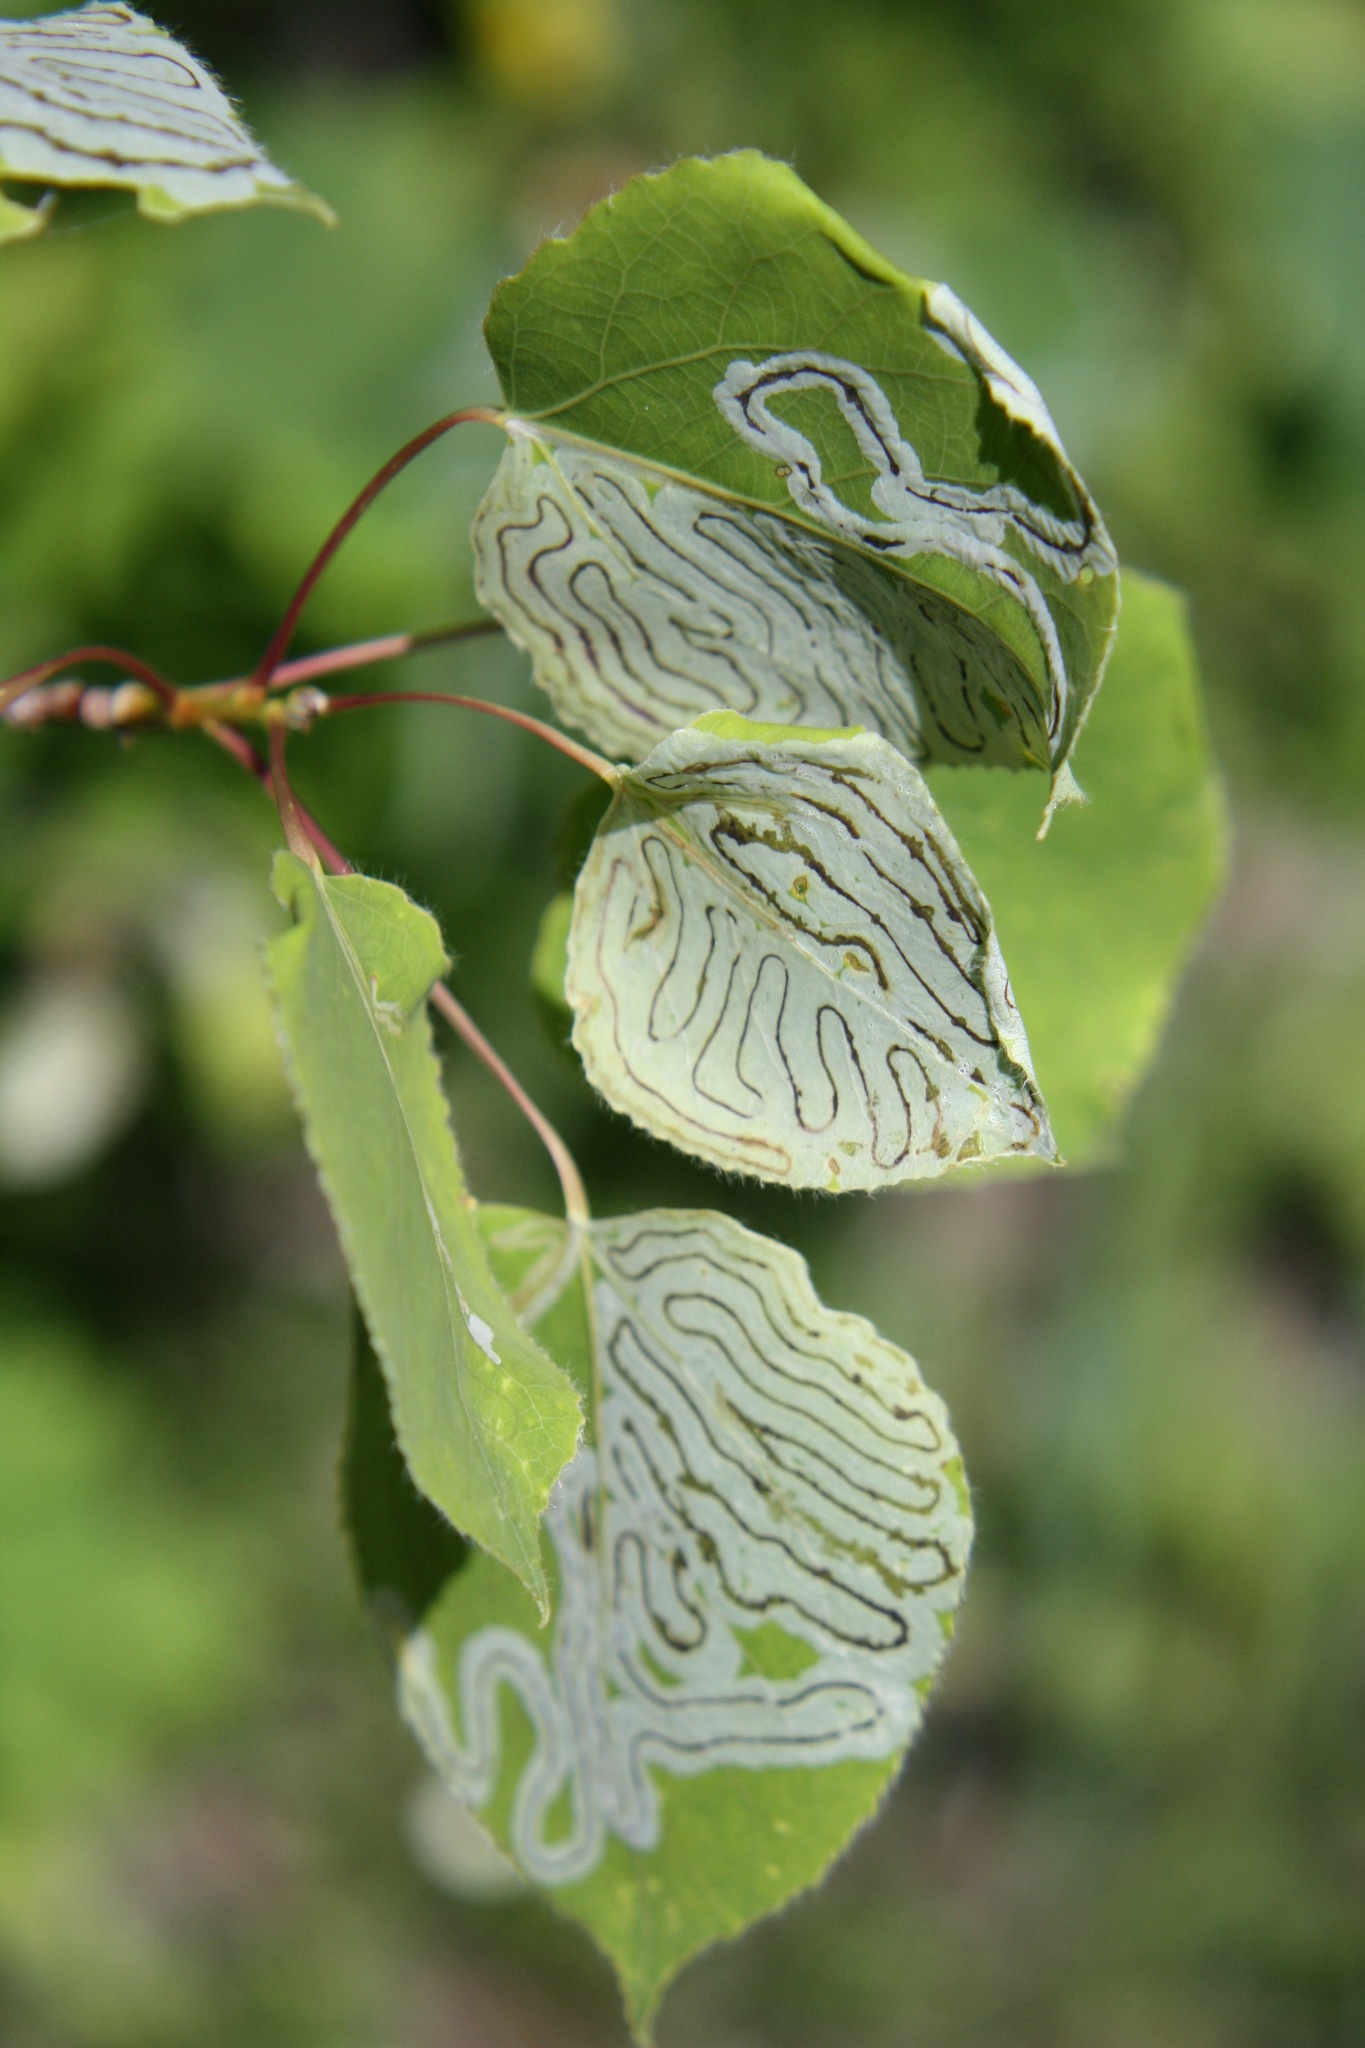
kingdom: Animalia
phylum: Arthropoda
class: Insecta
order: Lepidoptera
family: Gracillariidae
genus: Phyllocnistis
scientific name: Phyllocnistis populiella
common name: Aspen serpentine leafminer moth
